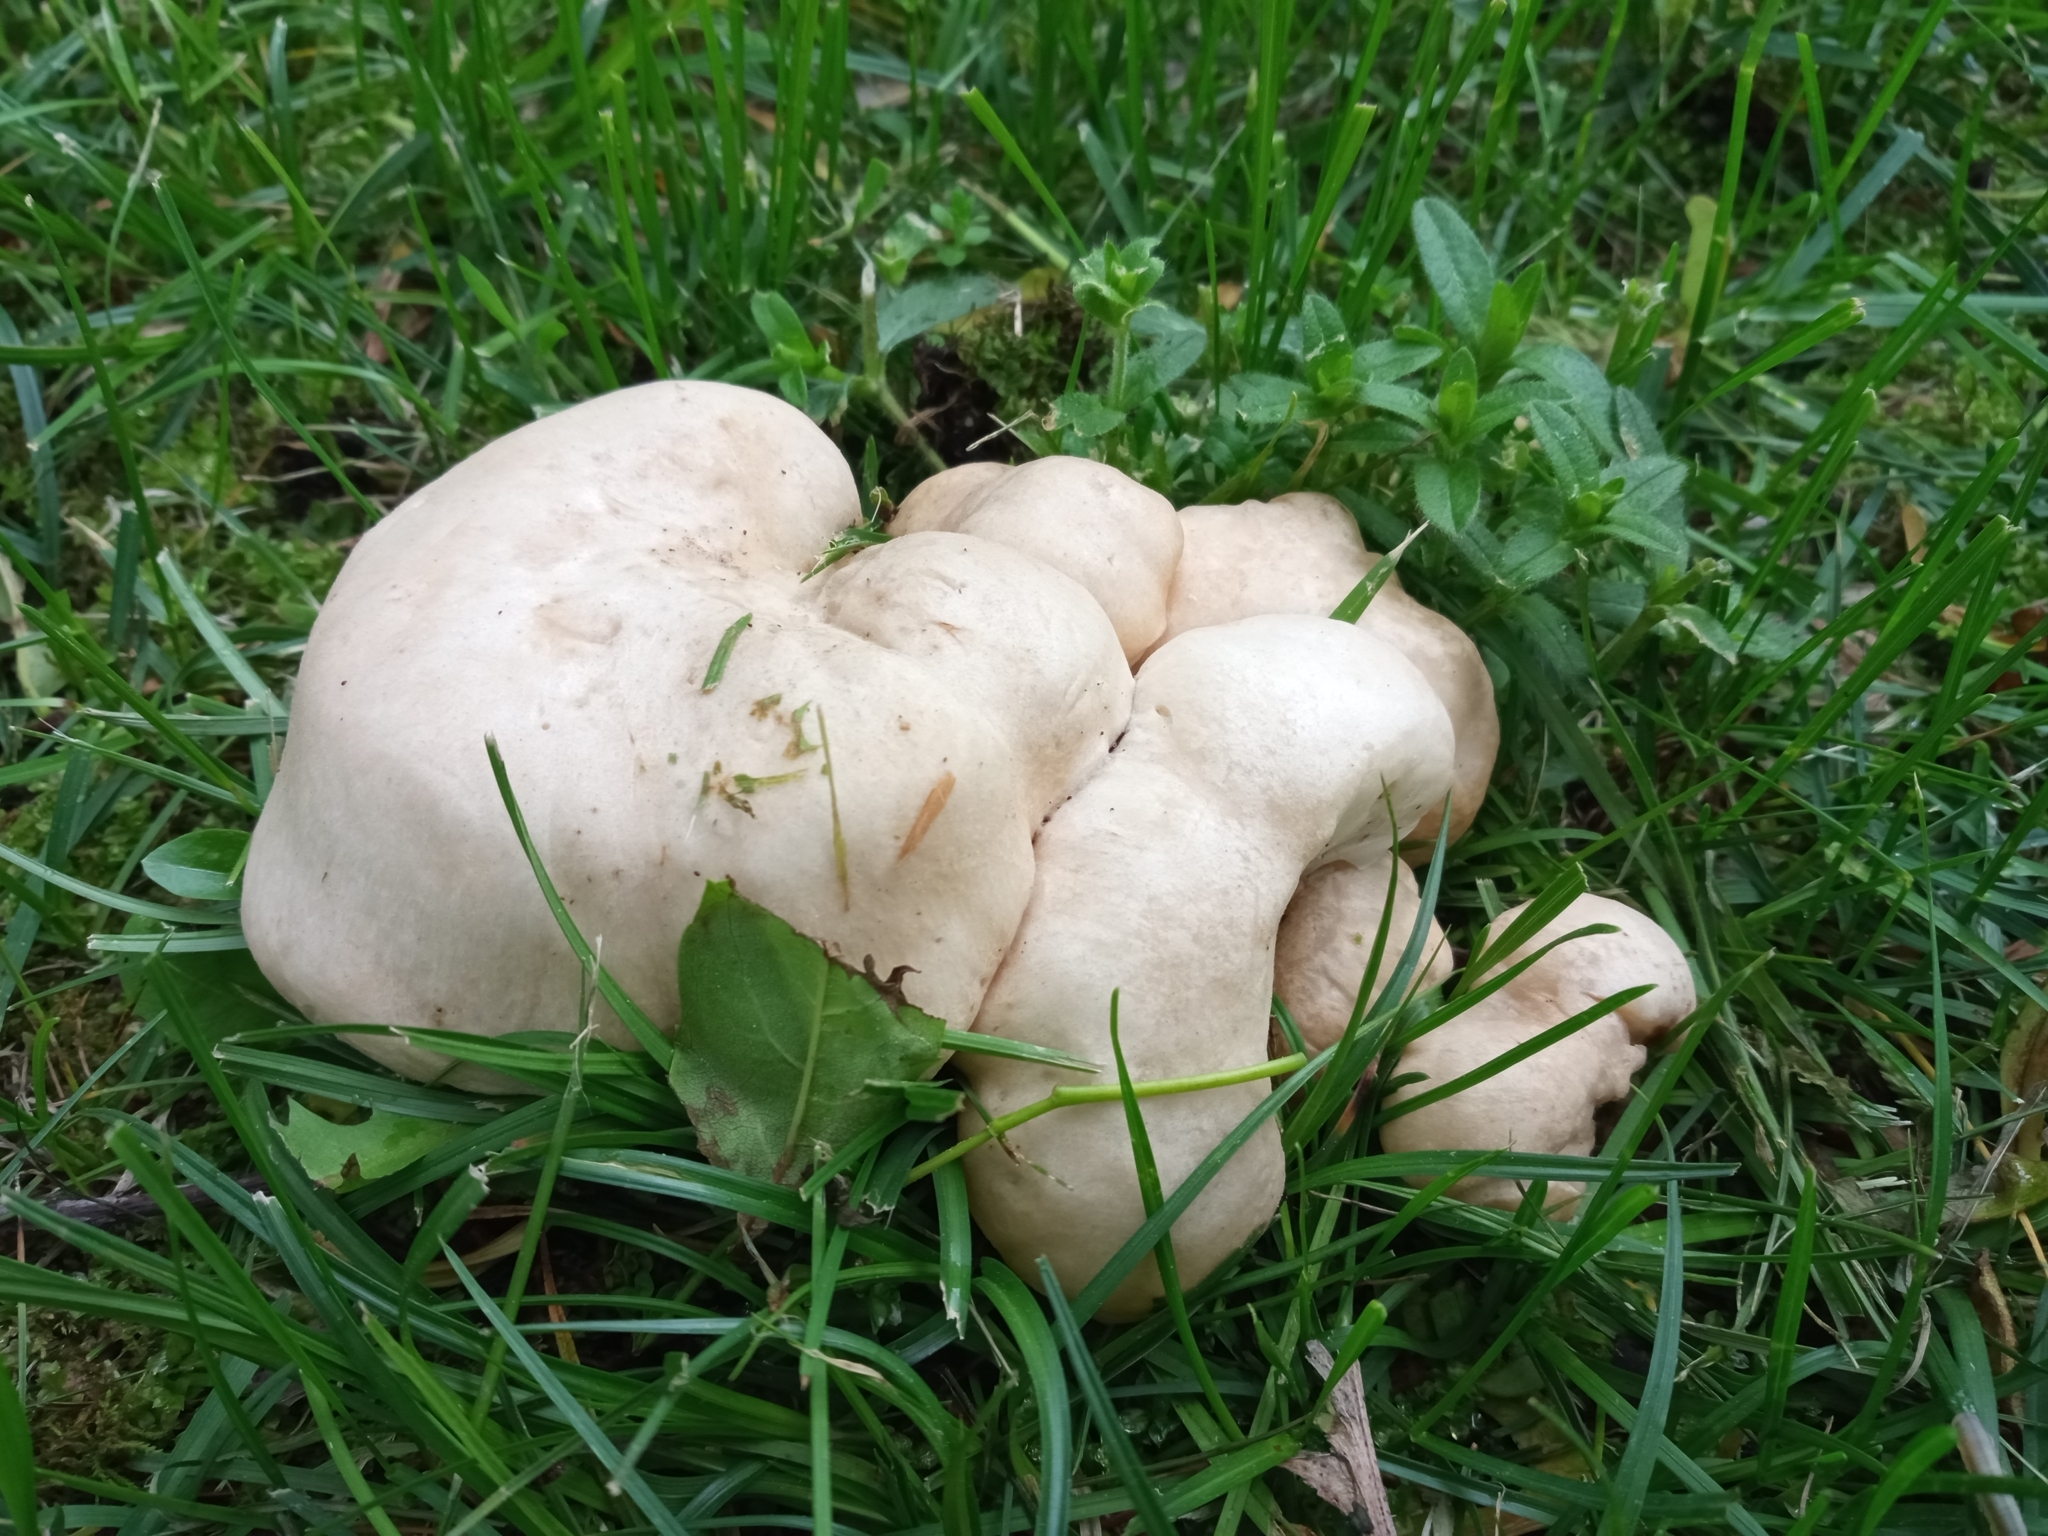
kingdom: Fungi
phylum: Basidiomycota
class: Agaricomycetes
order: Agaricales
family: Lyophyllaceae
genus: Calocybe
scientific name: Calocybe gambosa
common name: St. george's mushroom
